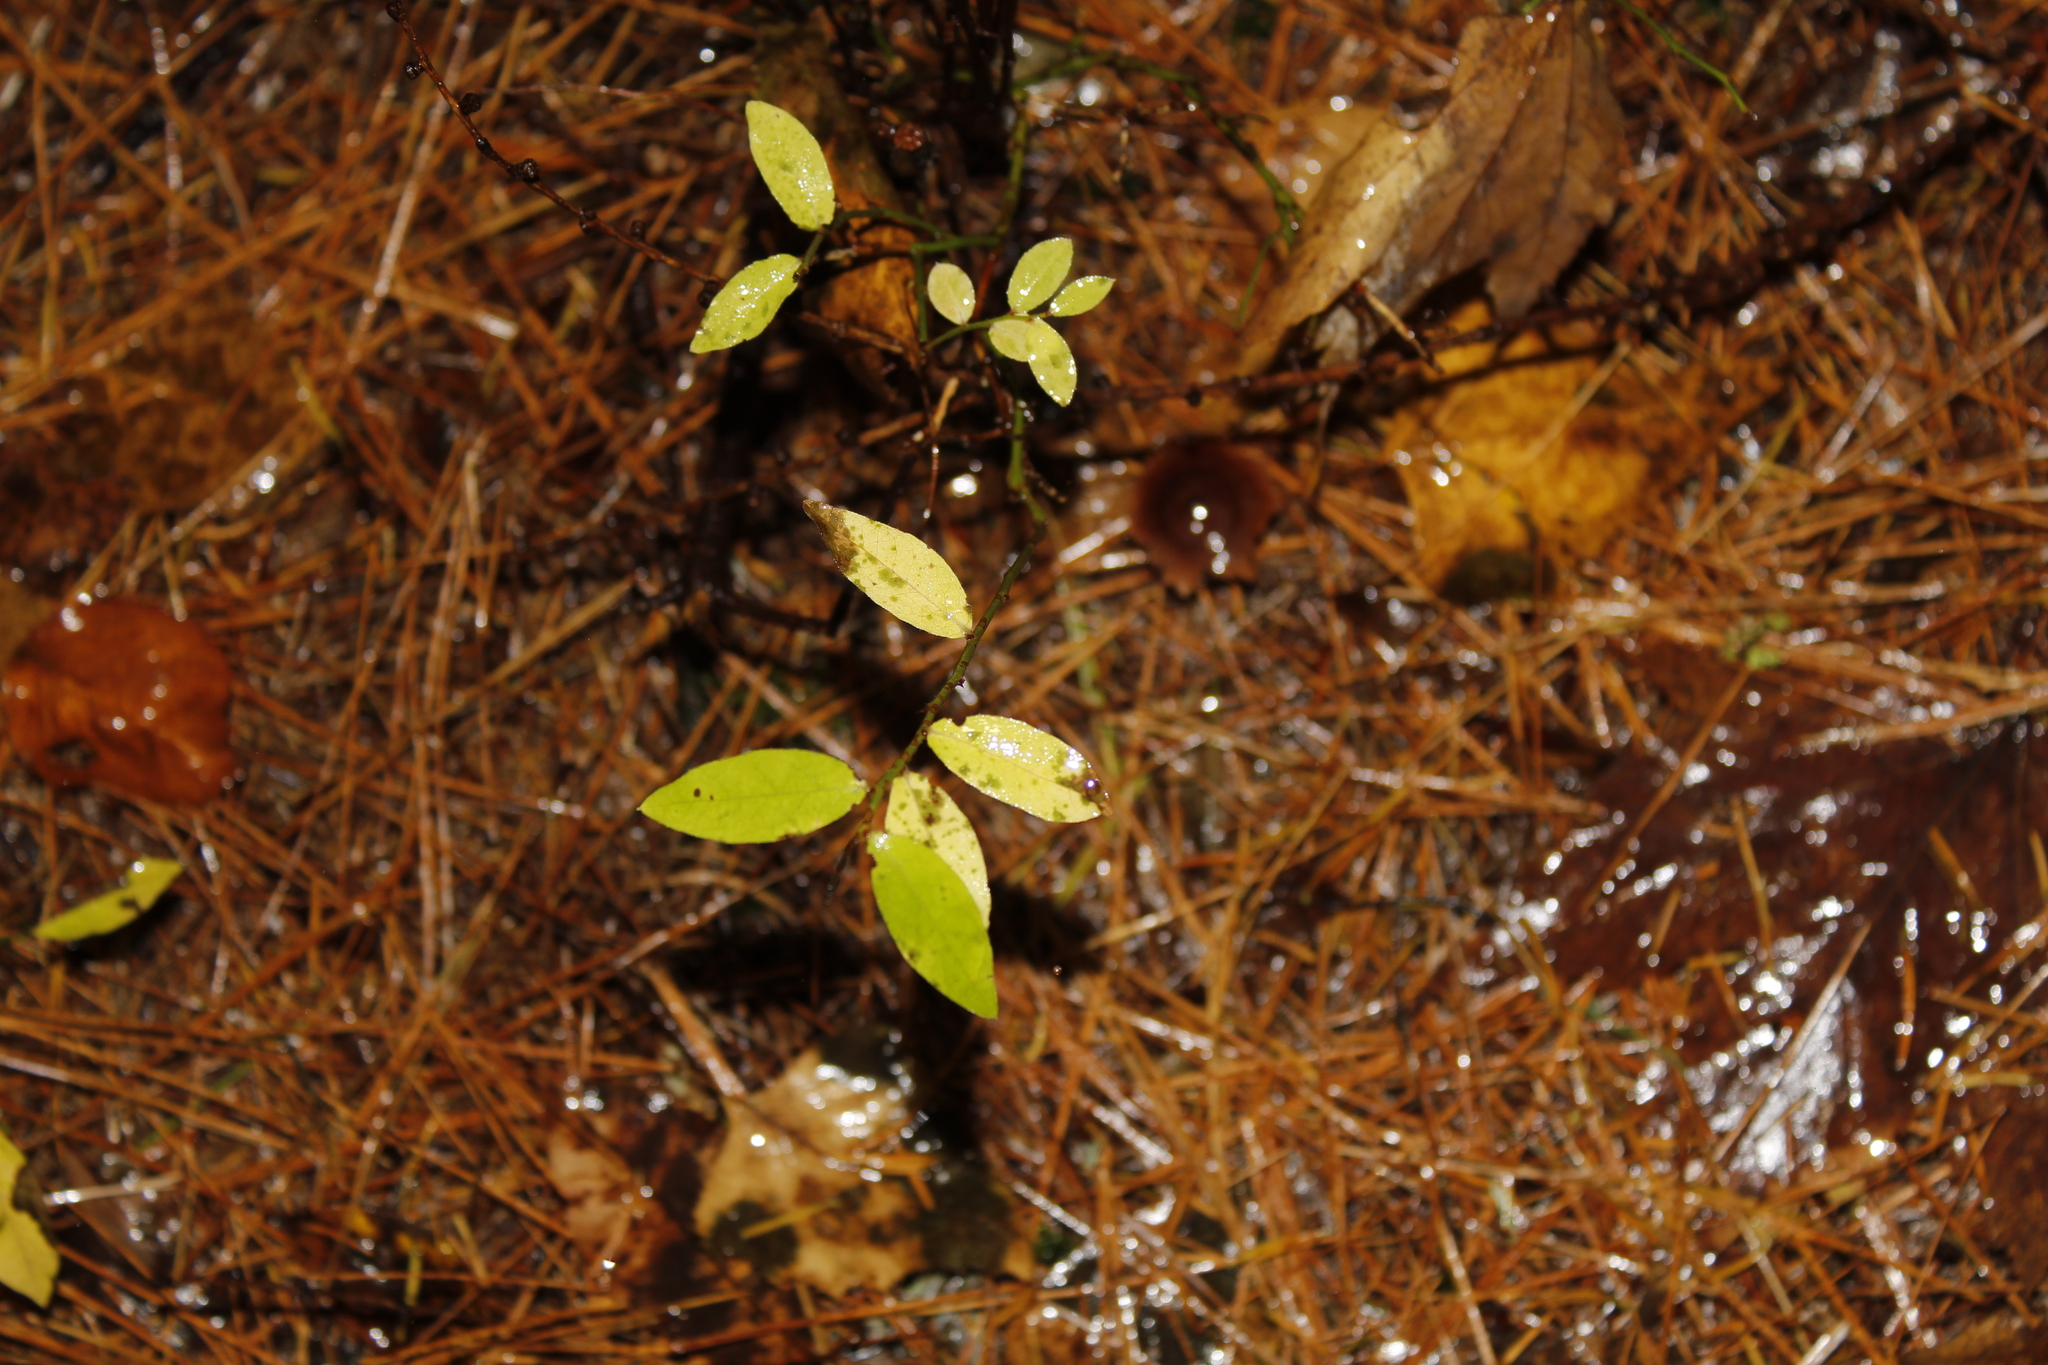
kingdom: Plantae
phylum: Tracheophyta
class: Magnoliopsida
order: Ericales
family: Ericaceae
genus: Vaccinium
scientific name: Vaccinium angustifolium
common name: Early lowbush blueberry
